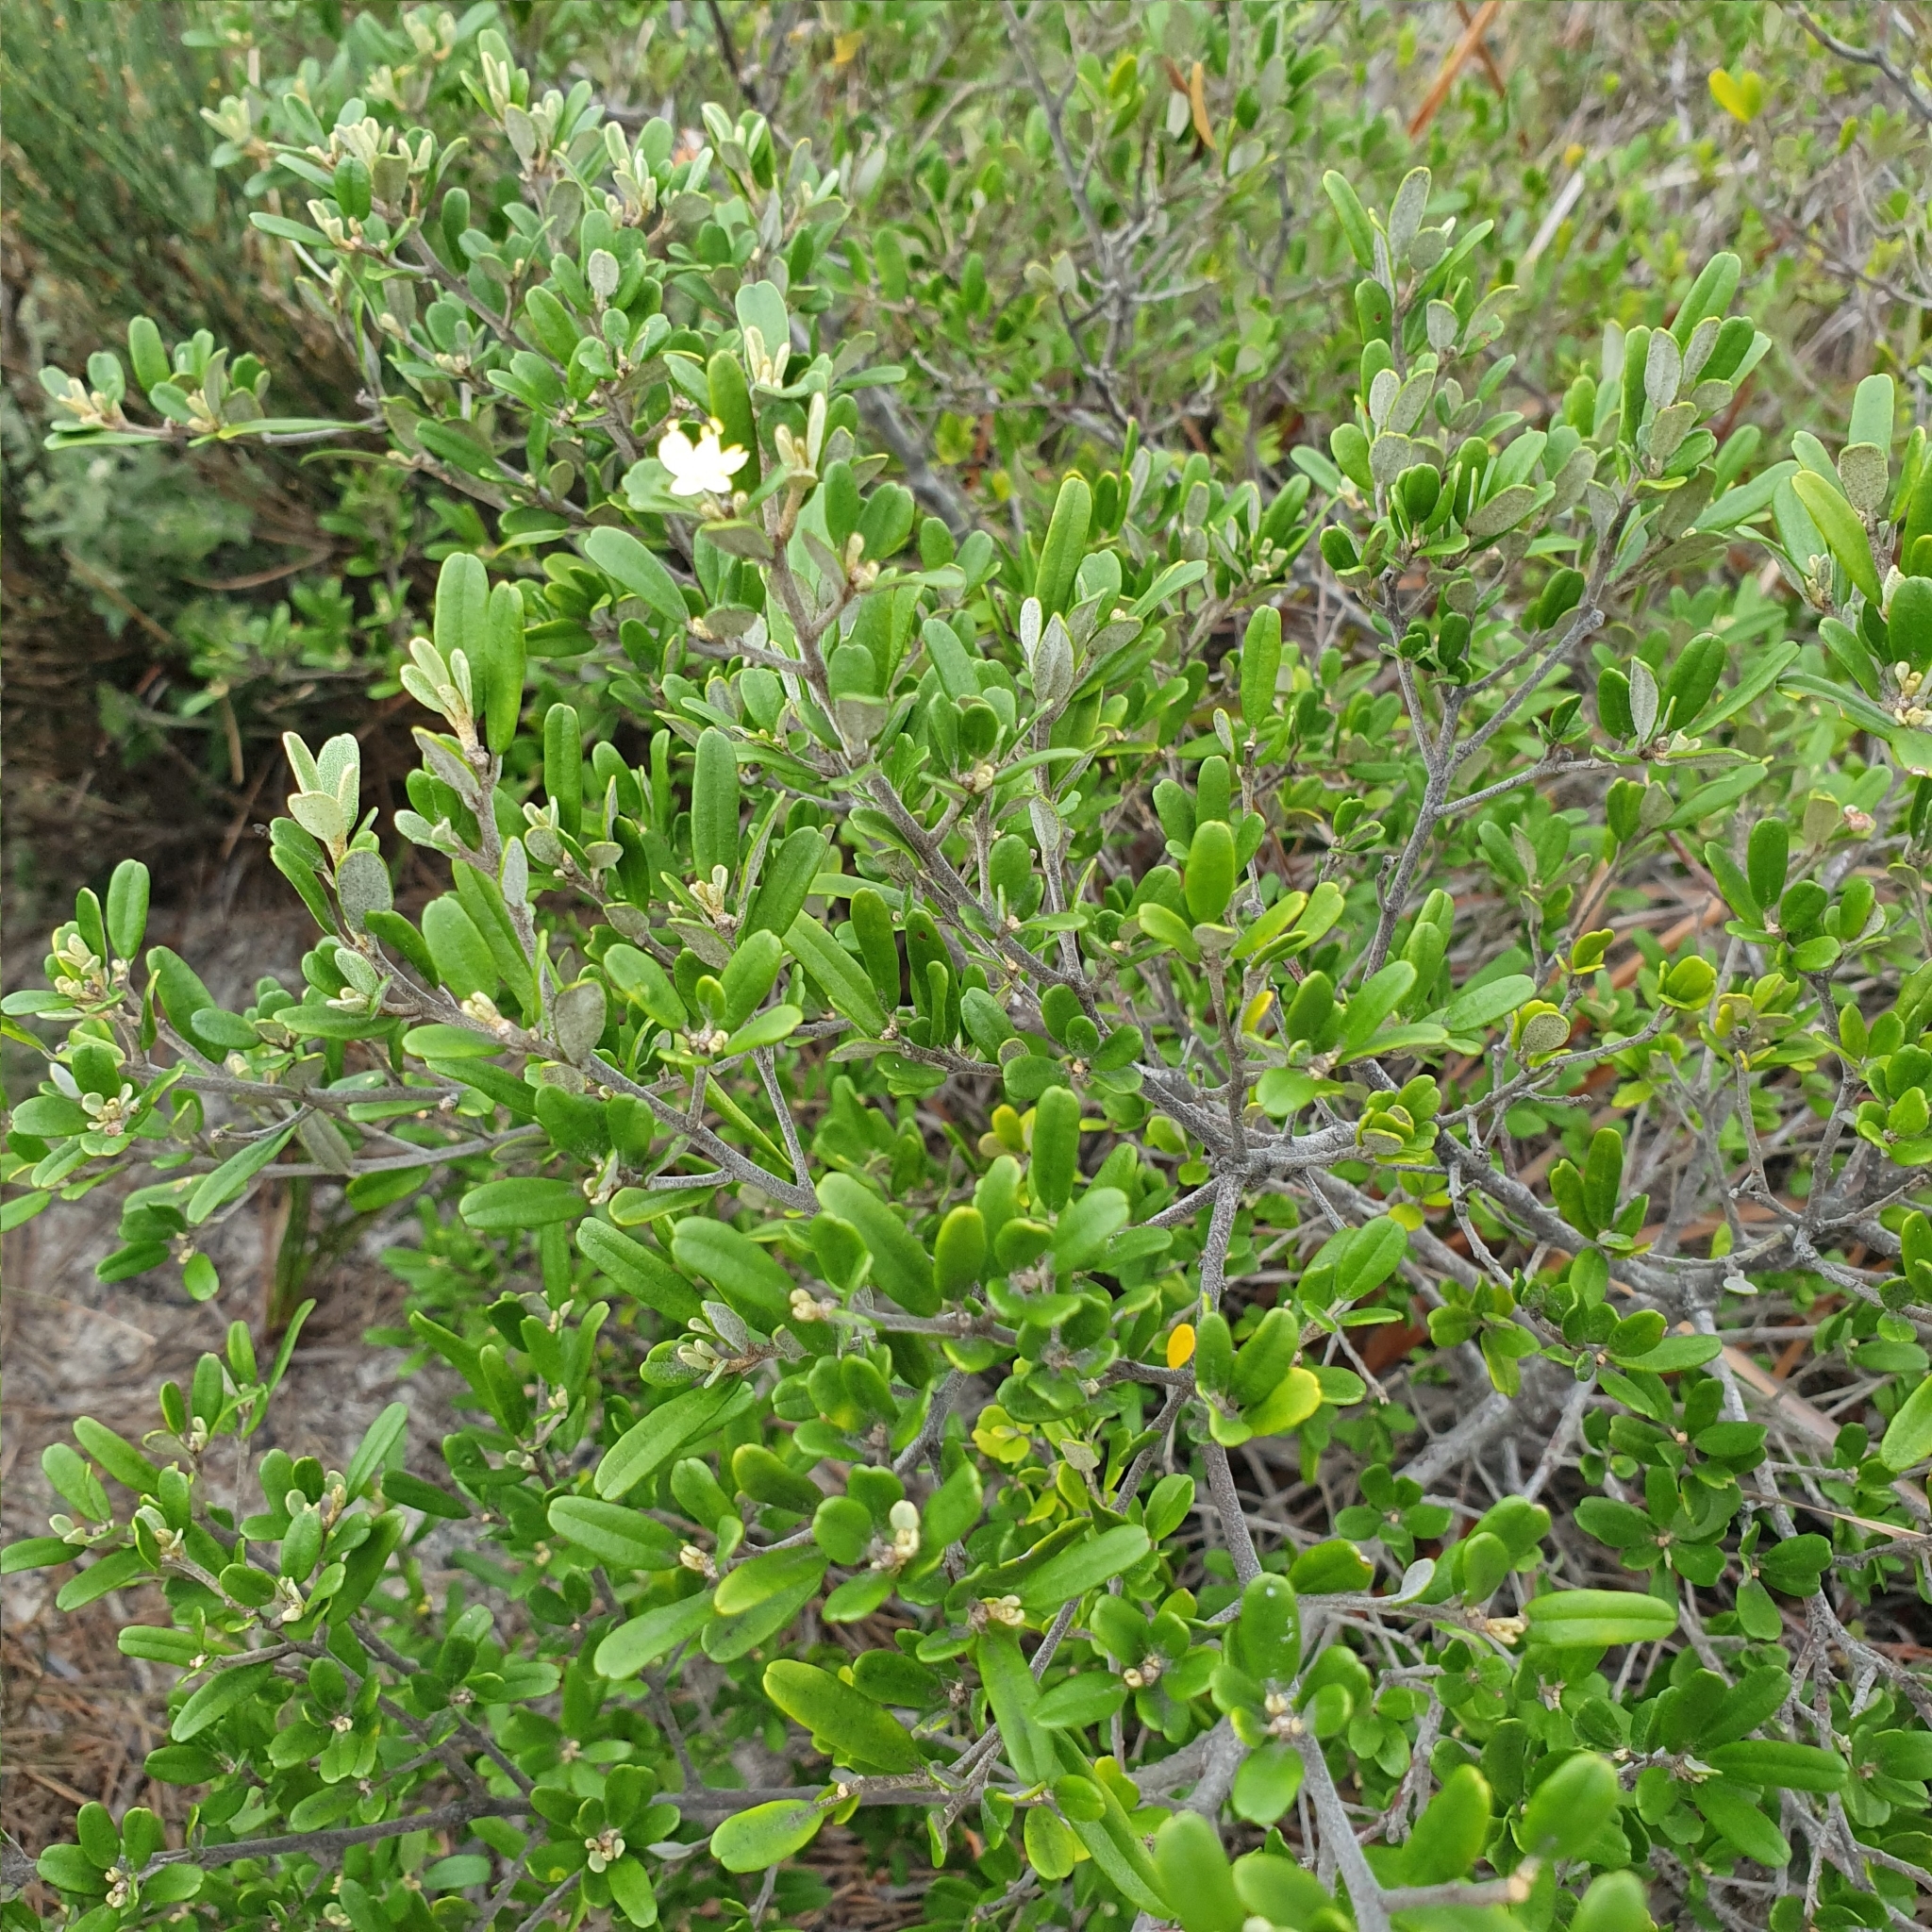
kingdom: Plantae
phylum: Tracheophyta
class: Magnoliopsida
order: Sapindales
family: Rutaceae
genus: Phebalium
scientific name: Phebalium squamulosum
